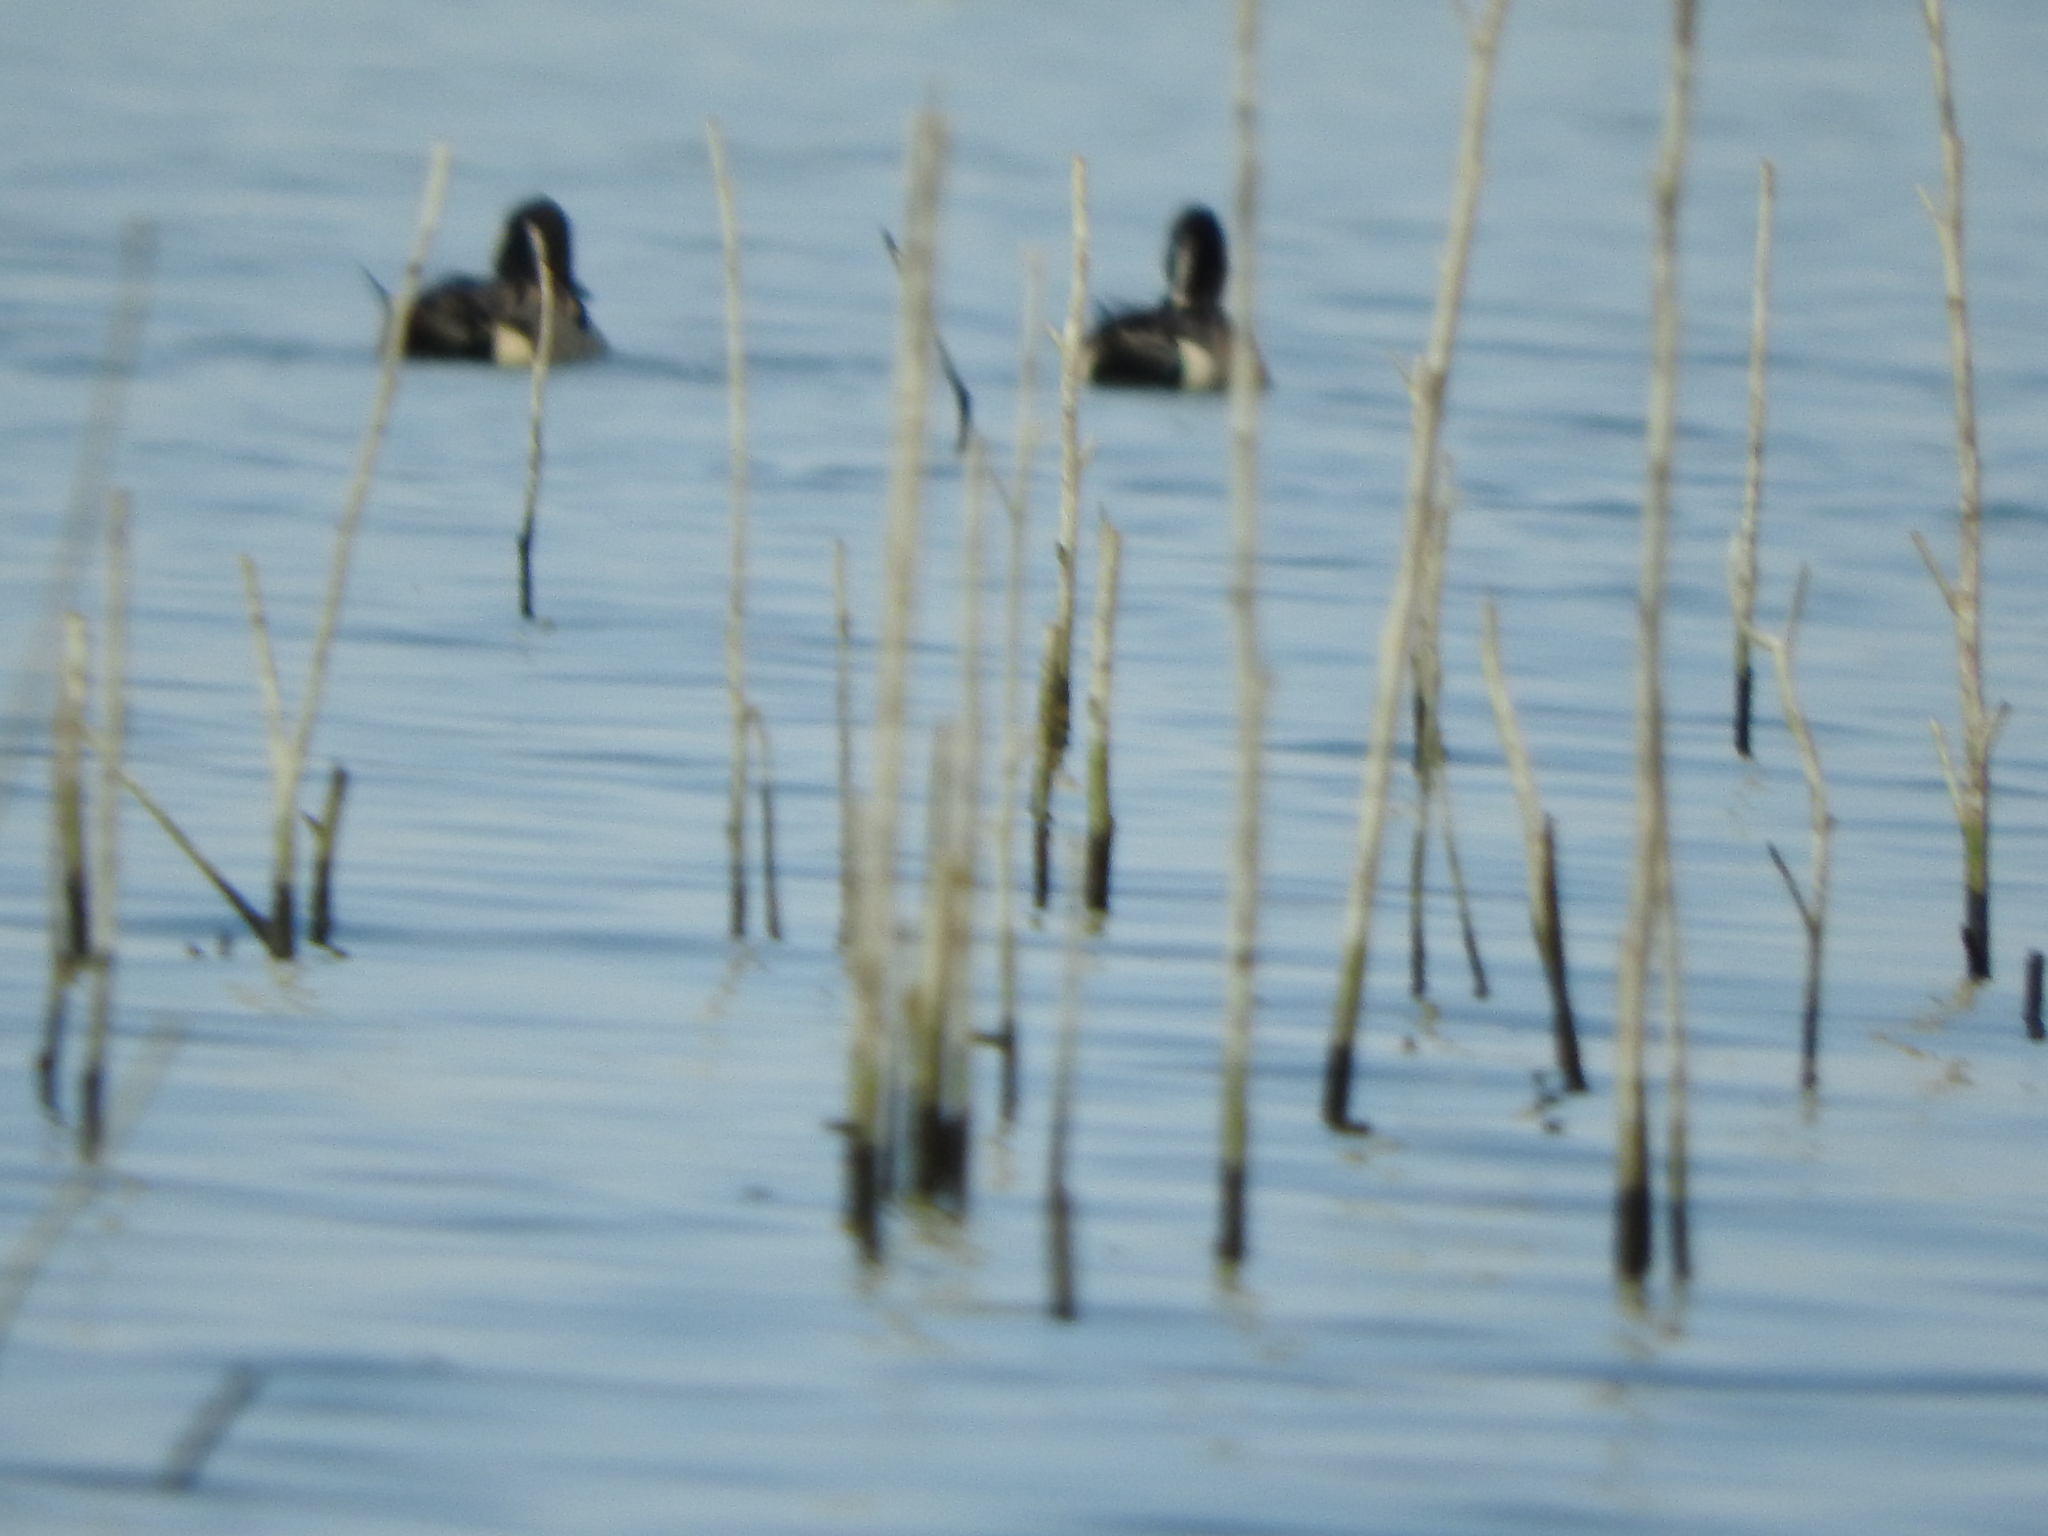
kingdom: Animalia
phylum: Chordata
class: Aves
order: Anseriformes
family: Anatidae
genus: Mareca
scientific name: Mareca strepera
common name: Gadwall
